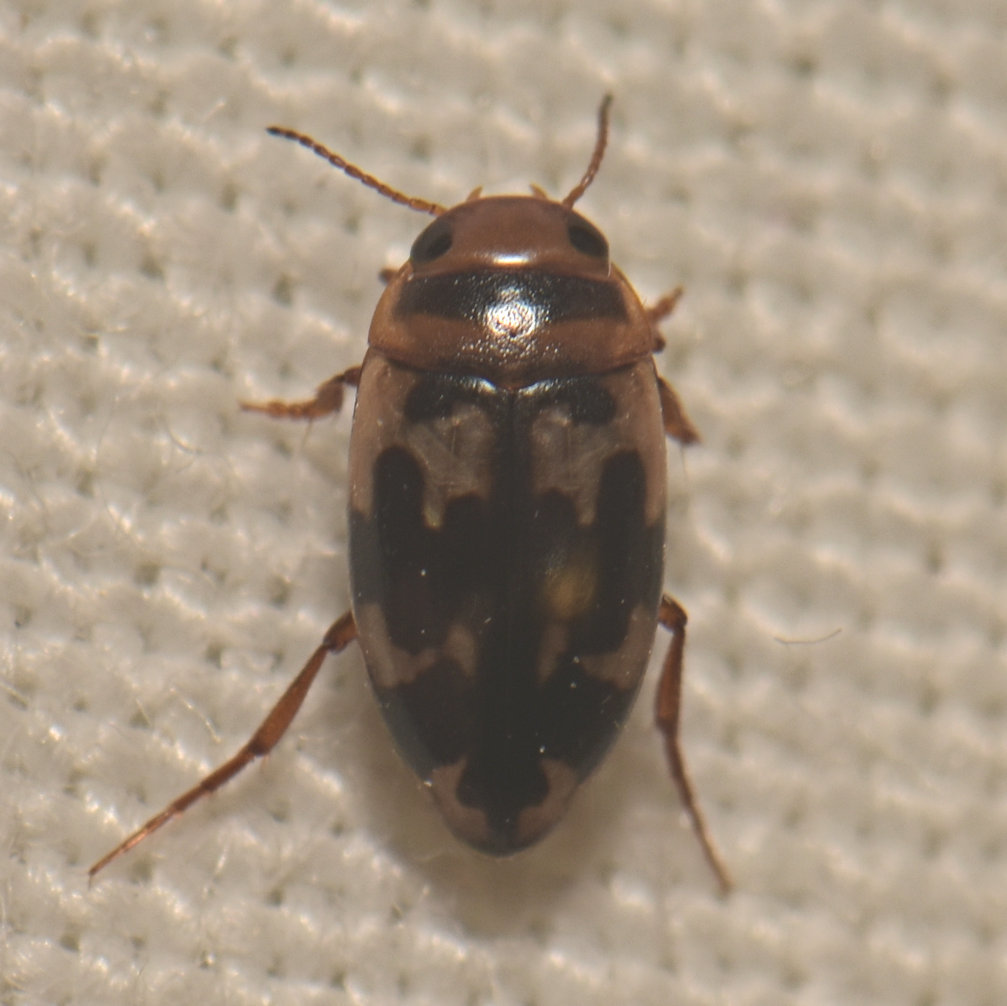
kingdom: Animalia
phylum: Arthropoda
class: Insecta
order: Coleoptera
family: Dytiscidae
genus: Heterosternuta
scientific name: Heterosternuta wickhami
